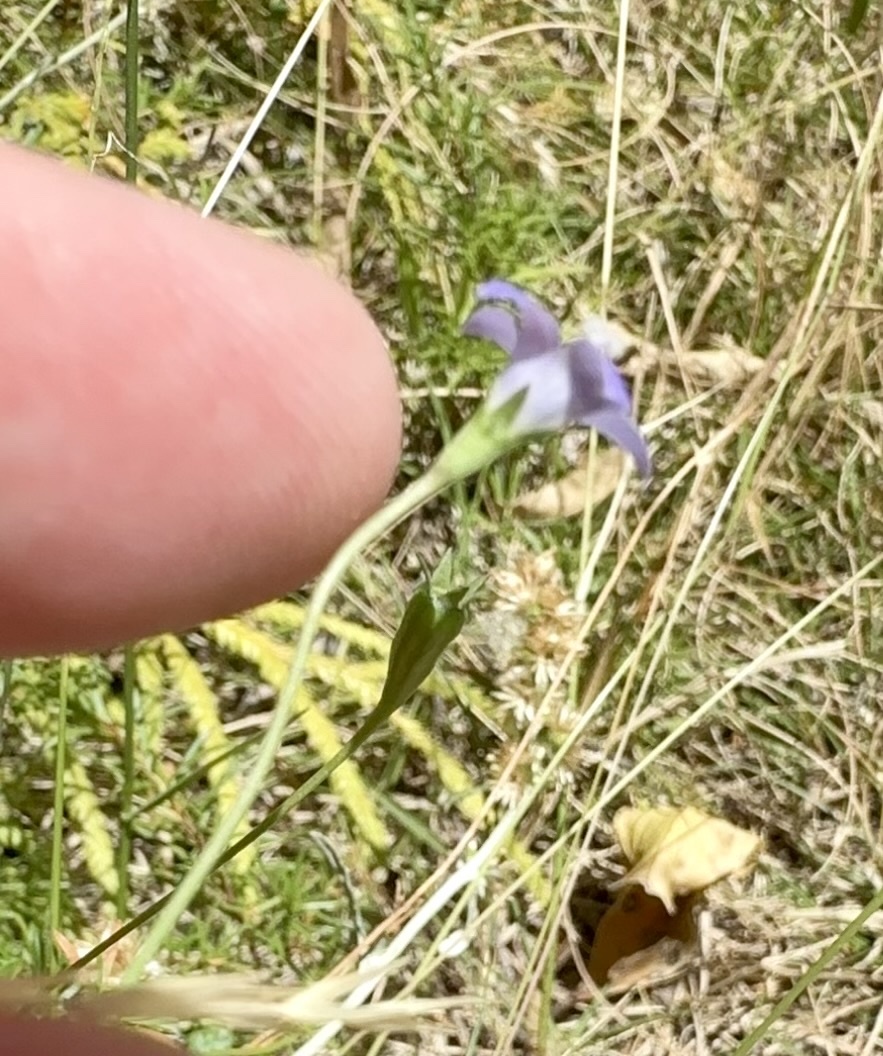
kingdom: Plantae
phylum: Tracheophyta
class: Magnoliopsida
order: Asterales
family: Campanulaceae
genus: Wahlenbergia
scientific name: Wahlenbergia violacea
